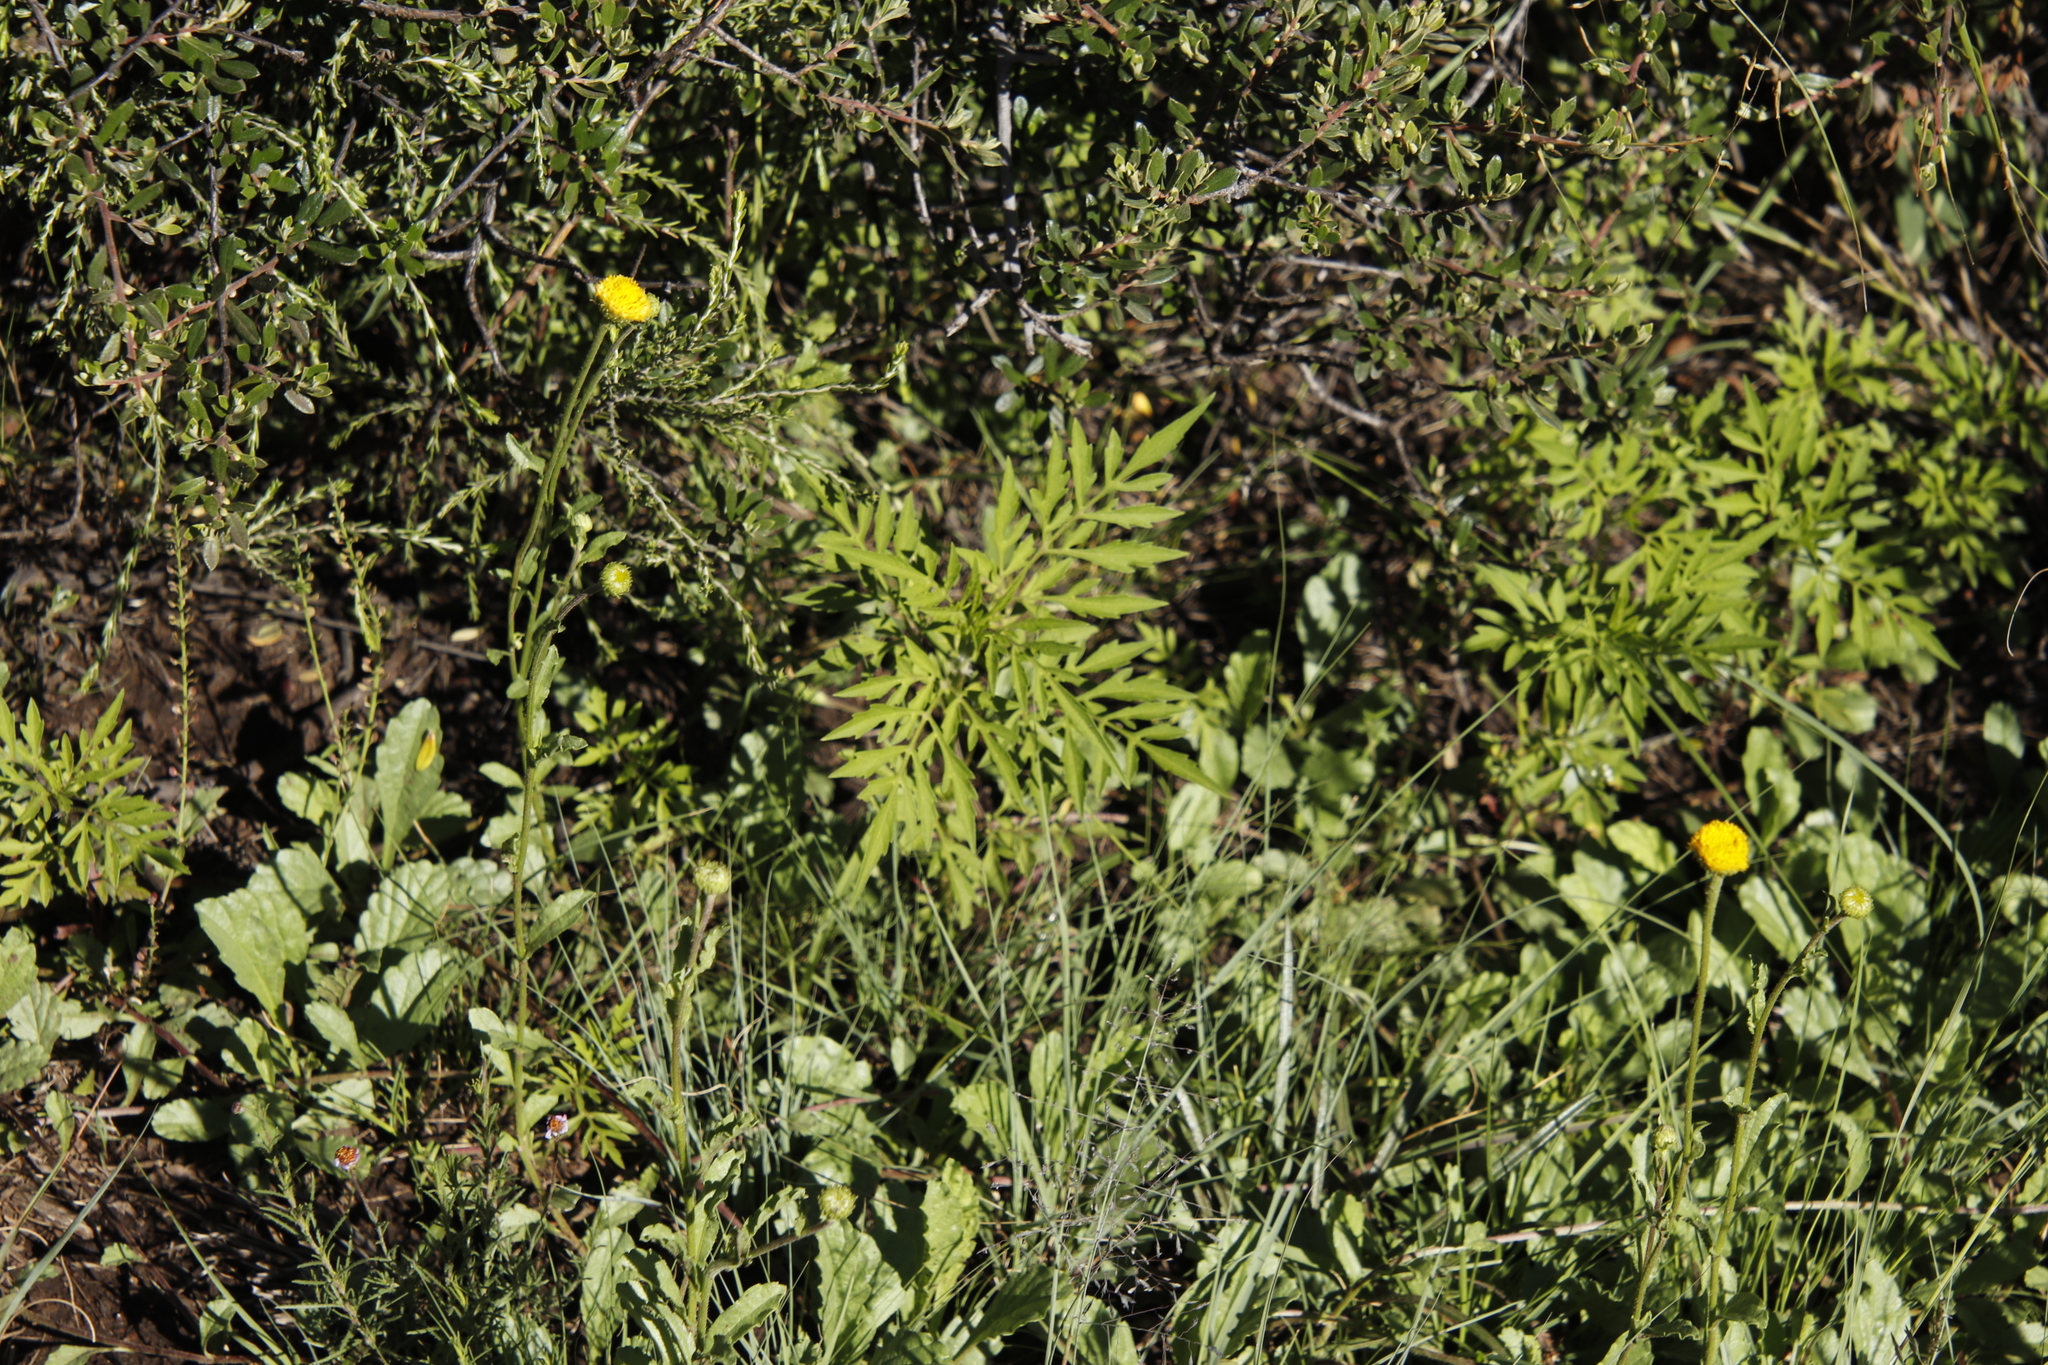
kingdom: Plantae
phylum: Tracheophyta
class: Magnoliopsida
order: Asterales
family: Asteraceae
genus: Tagetes
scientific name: Tagetes minuta
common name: Muster john henry
